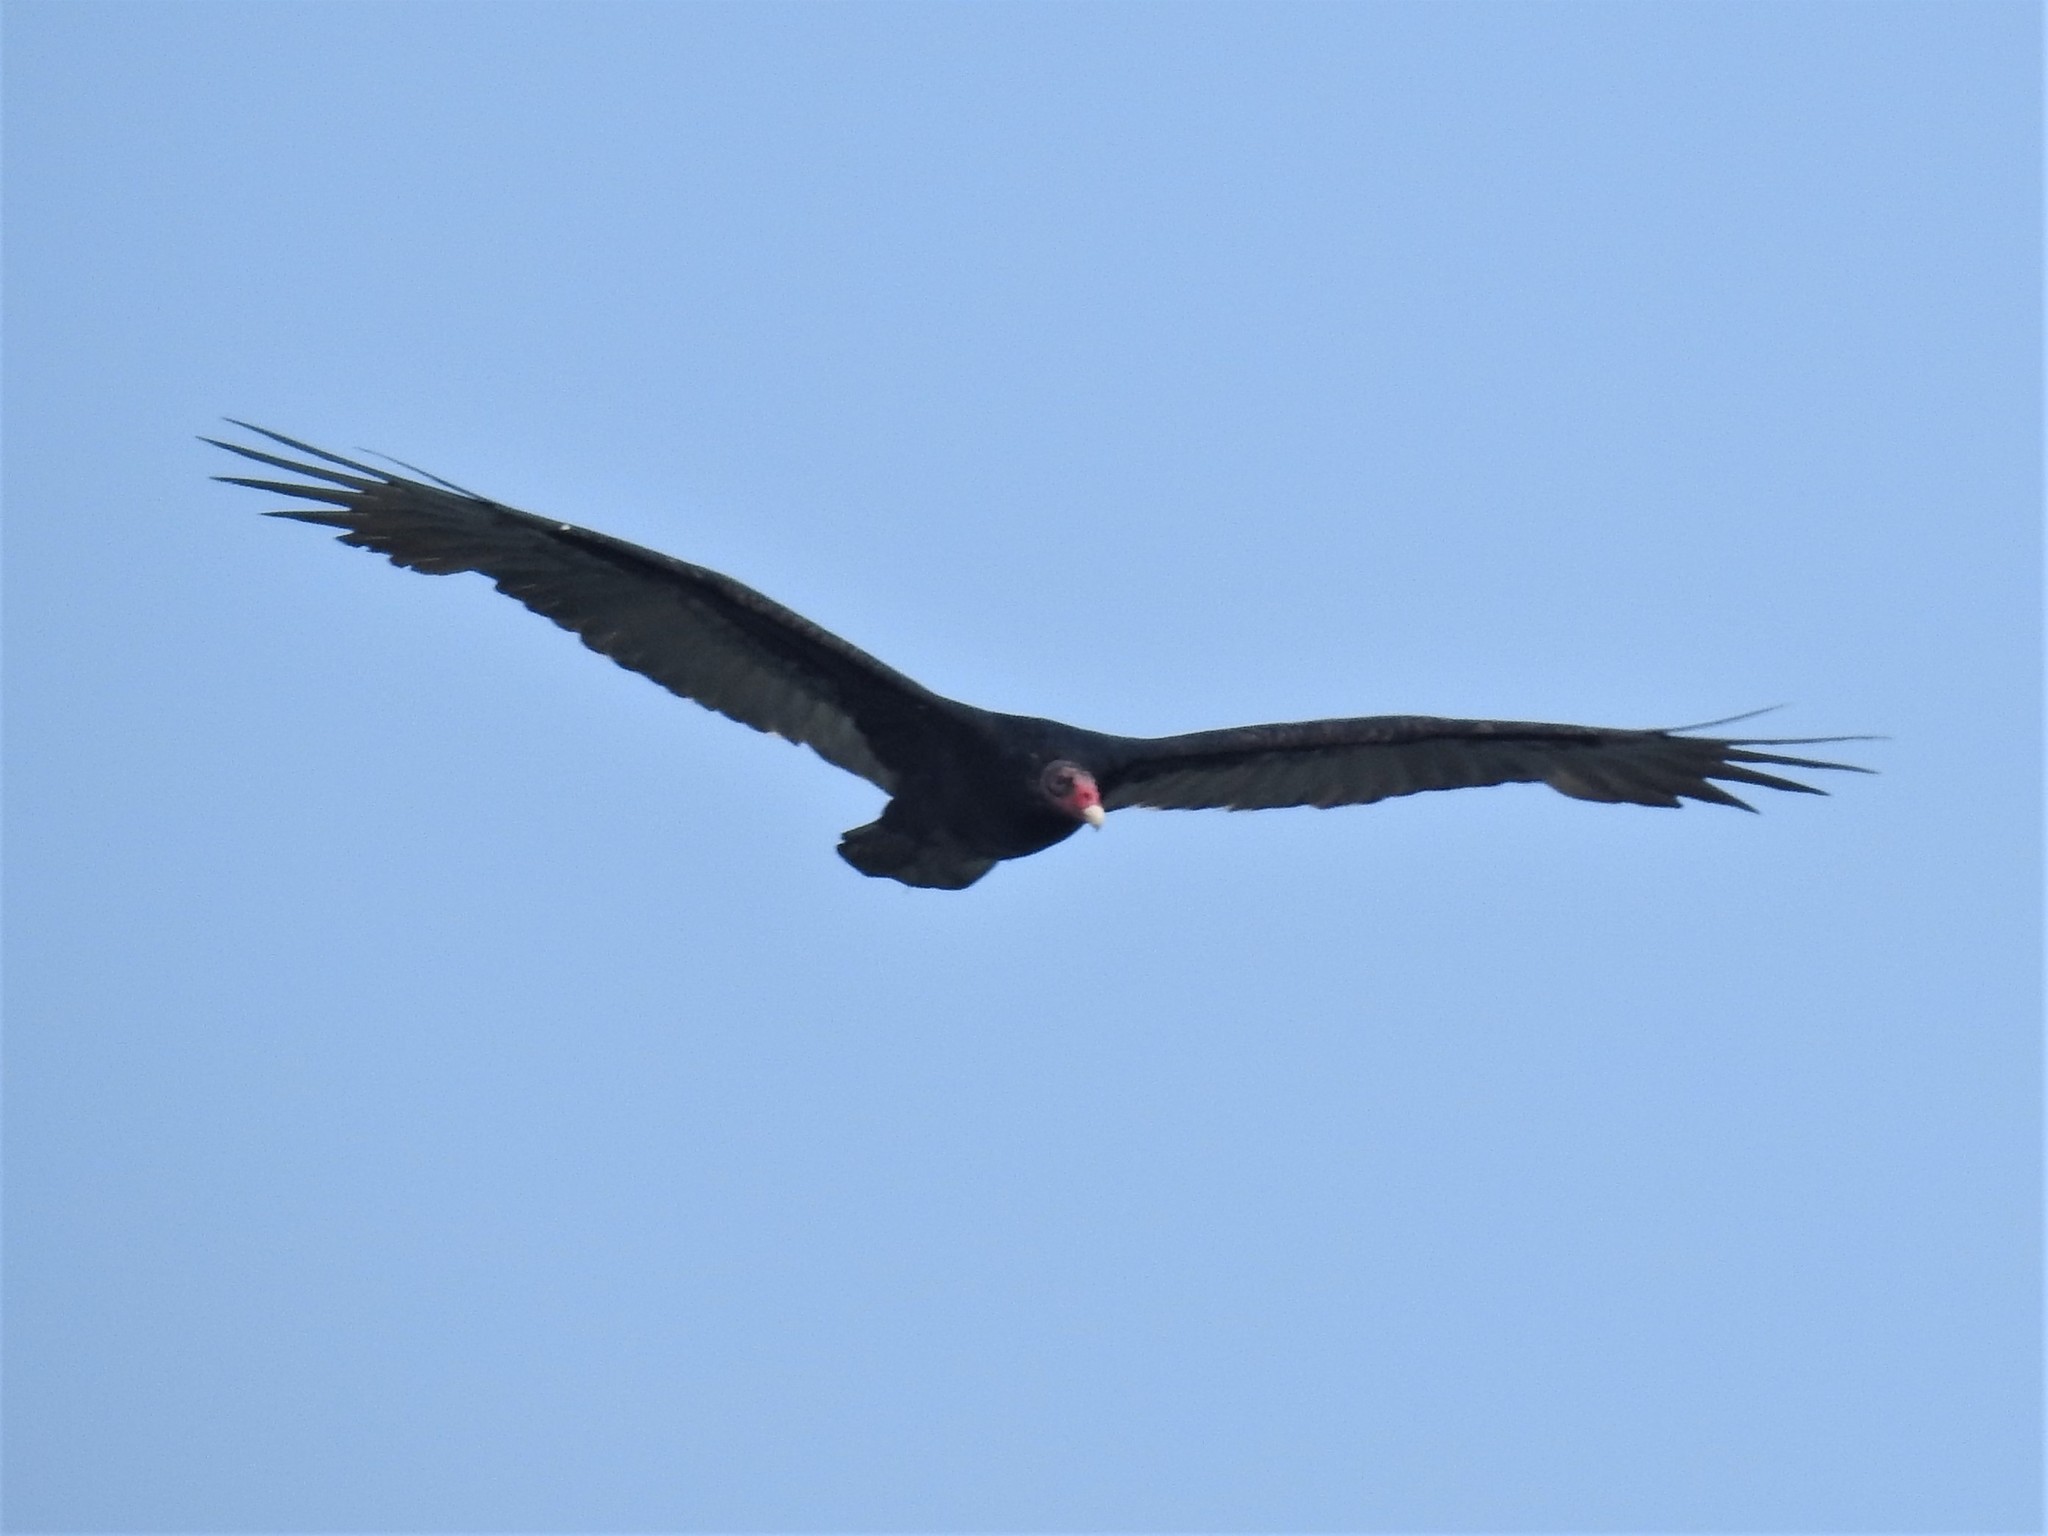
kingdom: Animalia
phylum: Chordata
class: Aves
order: Accipitriformes
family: Cathartidae
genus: Cathartes
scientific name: Cathartes aura
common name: Turkey vulture
